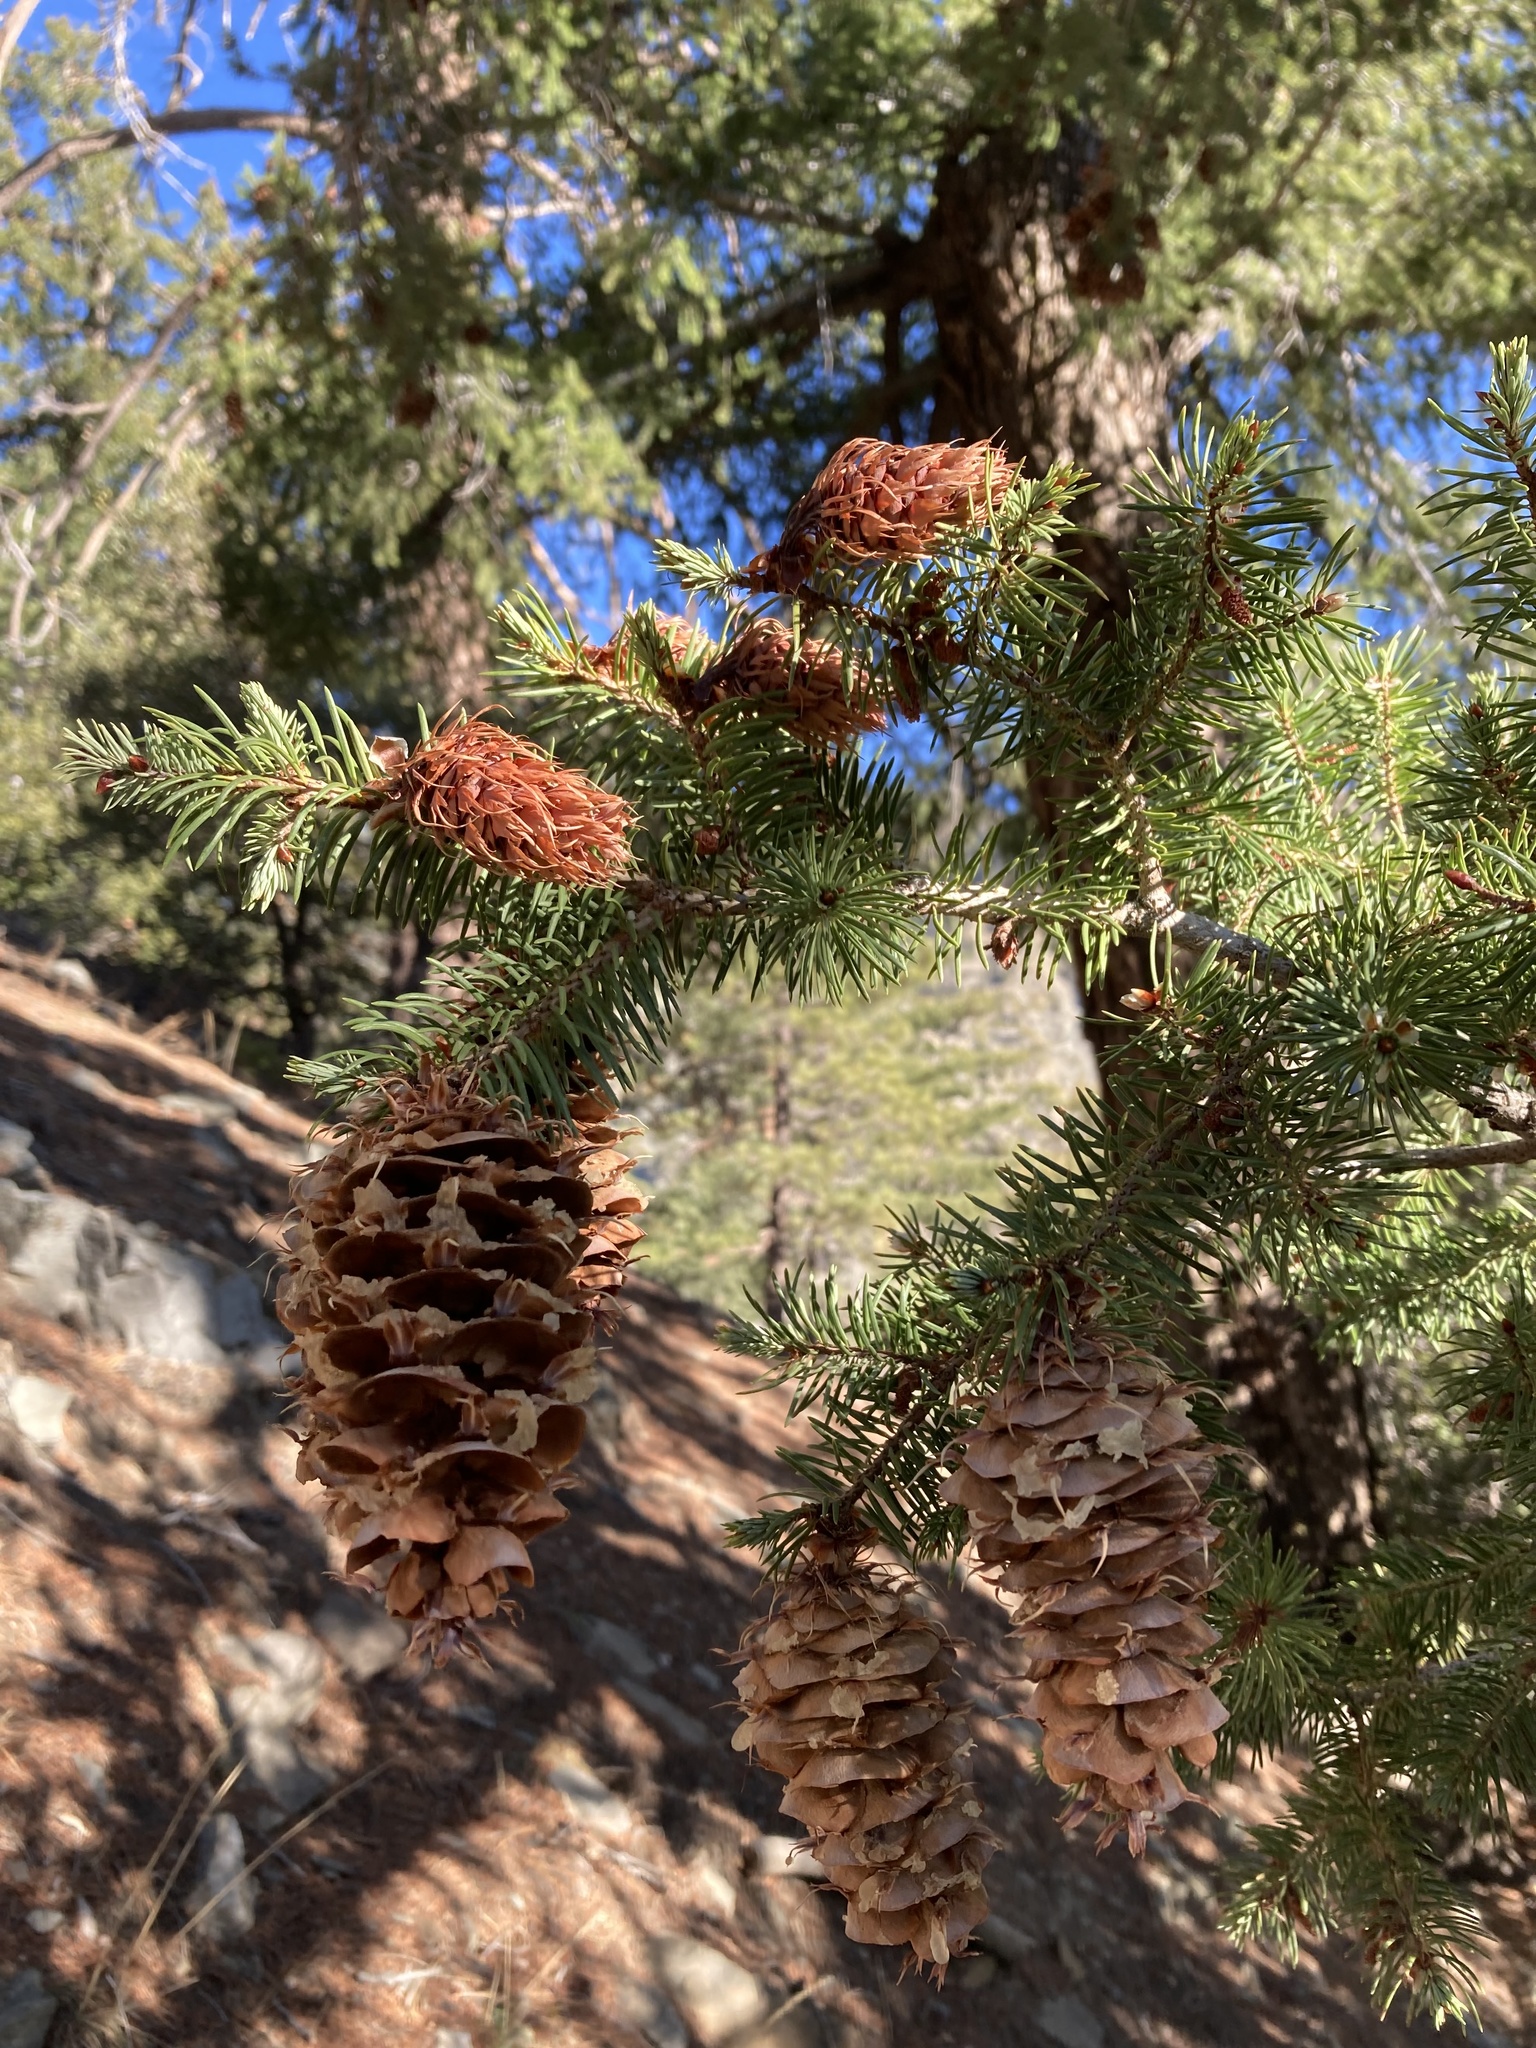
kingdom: Plantae
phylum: Tracheophyta
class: Pinopsida
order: Pinales
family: Pinaceae
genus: Pseudotsuga
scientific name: Pseudotsuga macrocarpa
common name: Big-cone douglas-fir
